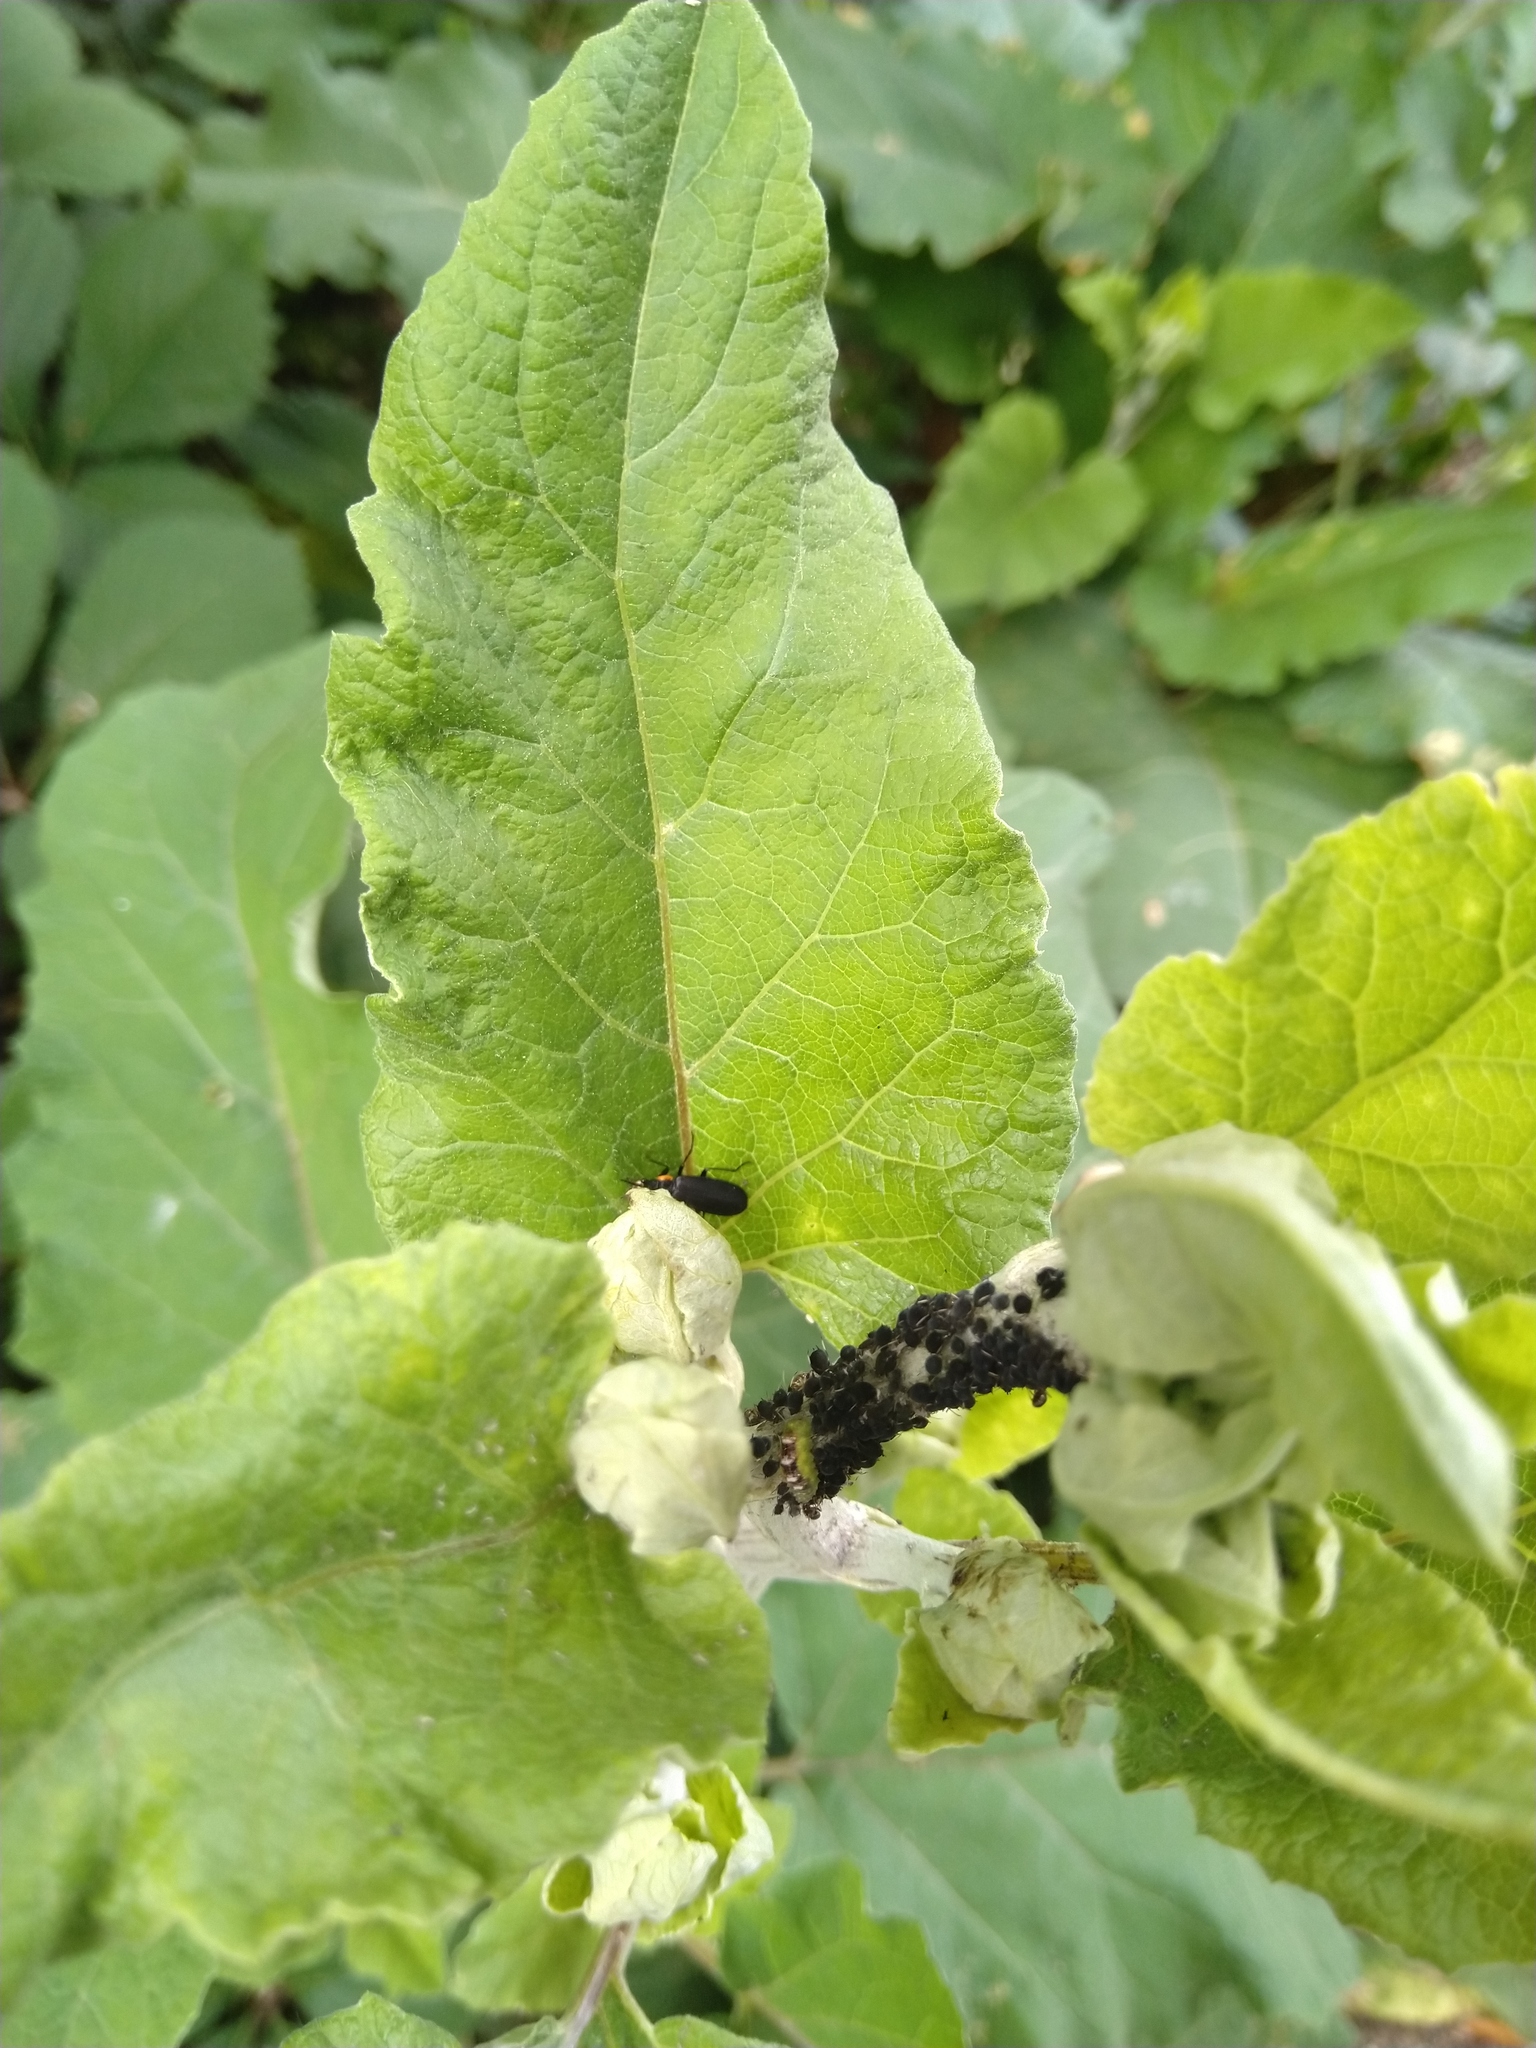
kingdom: Animalia
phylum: Arthropoda
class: Insecta
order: Diptera
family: Syrphidae
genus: Eupeodes
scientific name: Eupeodes pomus
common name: Short-tailed aphideater
